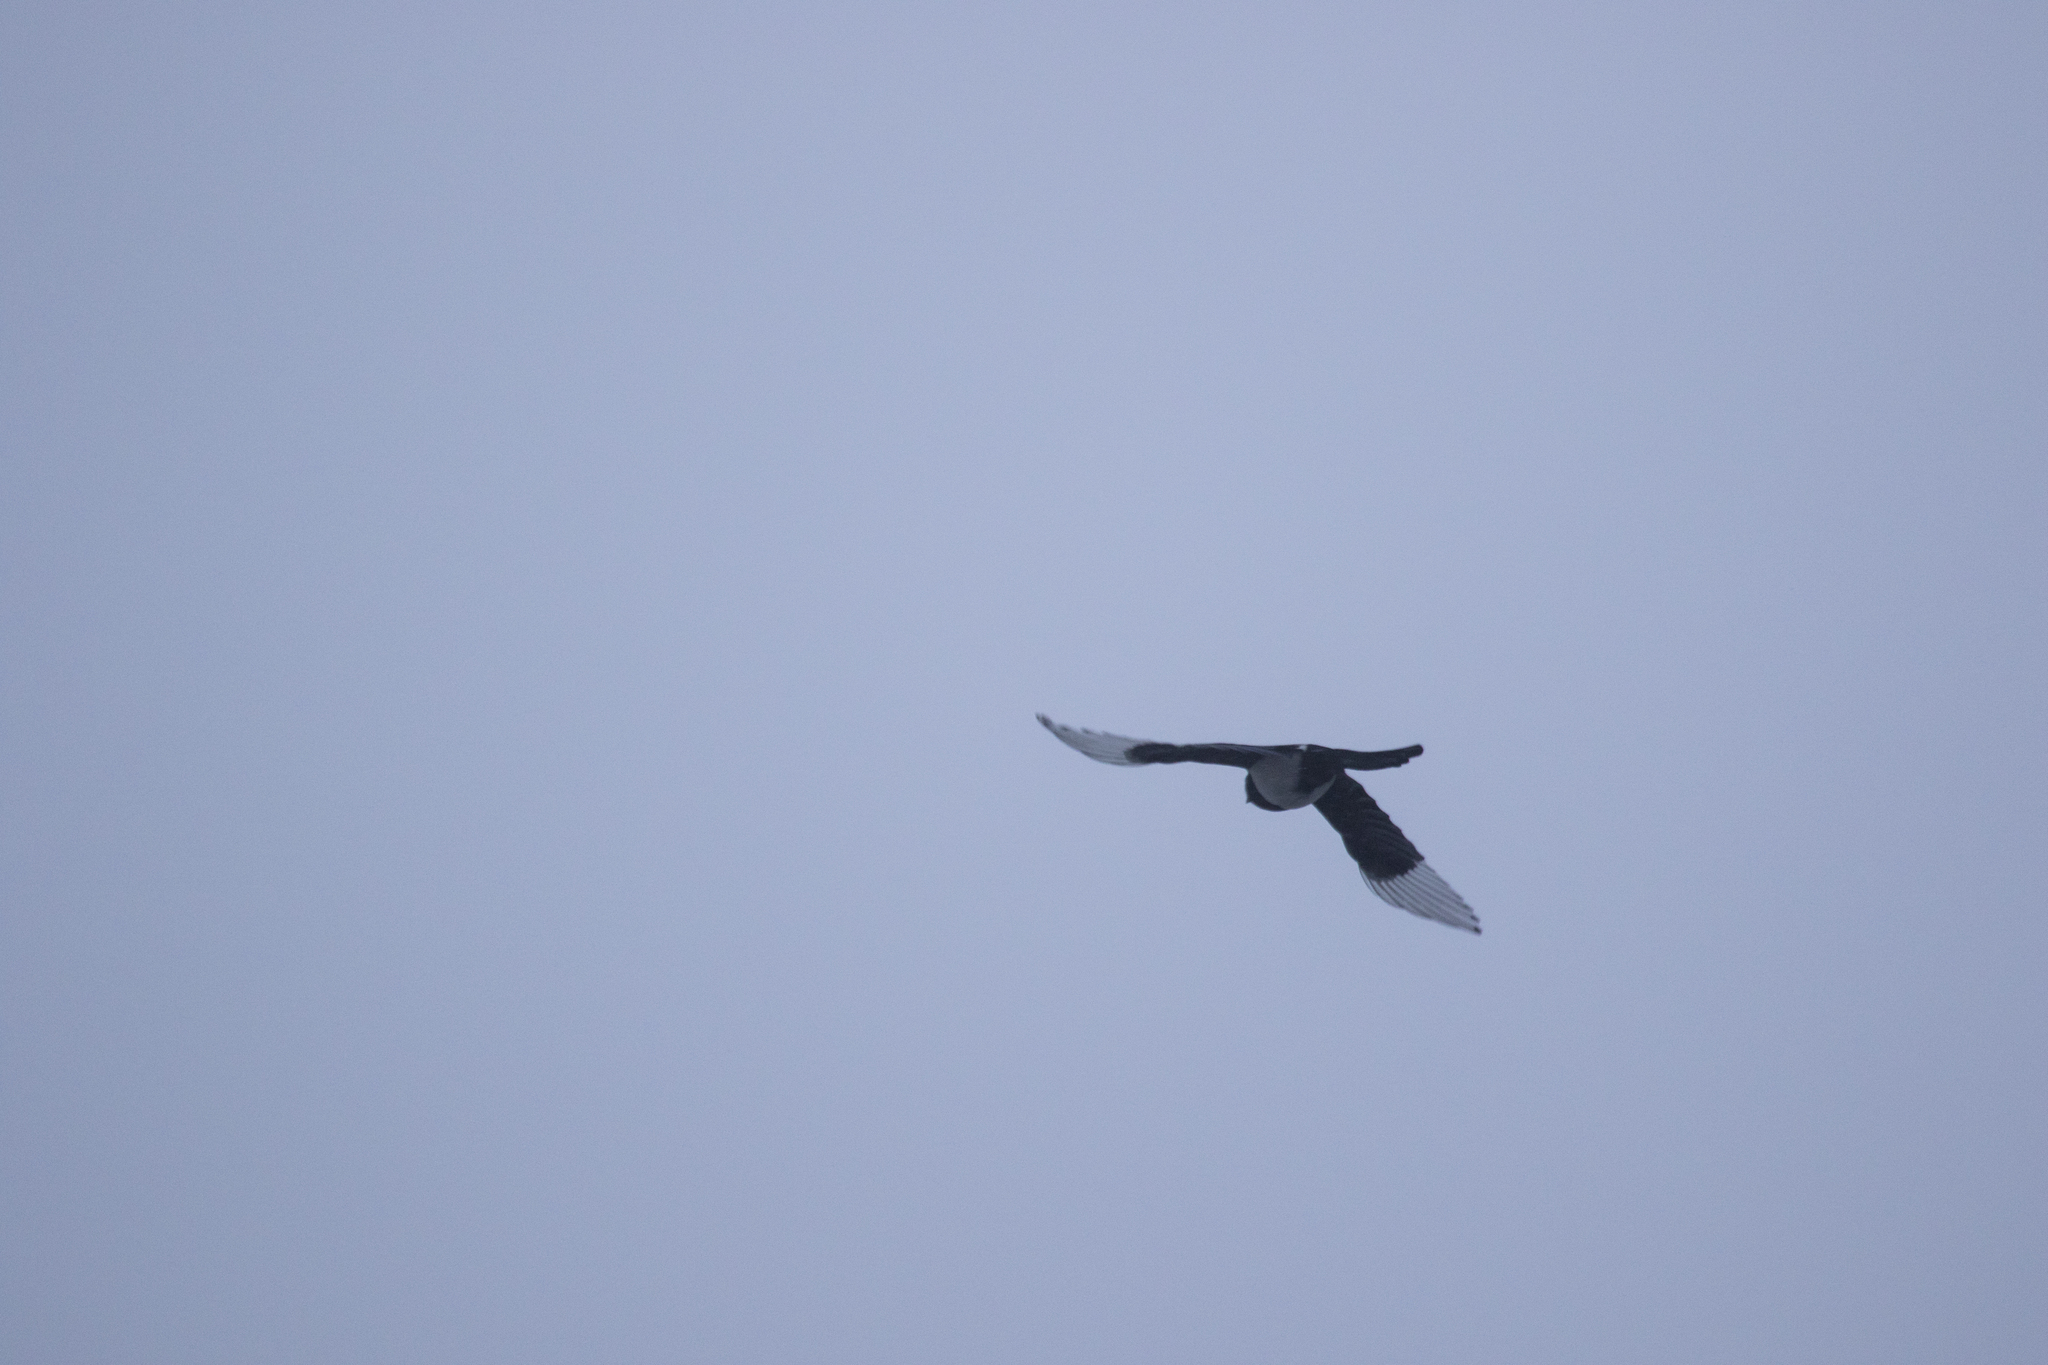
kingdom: Animalia
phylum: Chordata
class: Aves
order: Passeriformes
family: Corvidae
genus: Pica
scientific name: Pica pica
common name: Eurasian magpie
